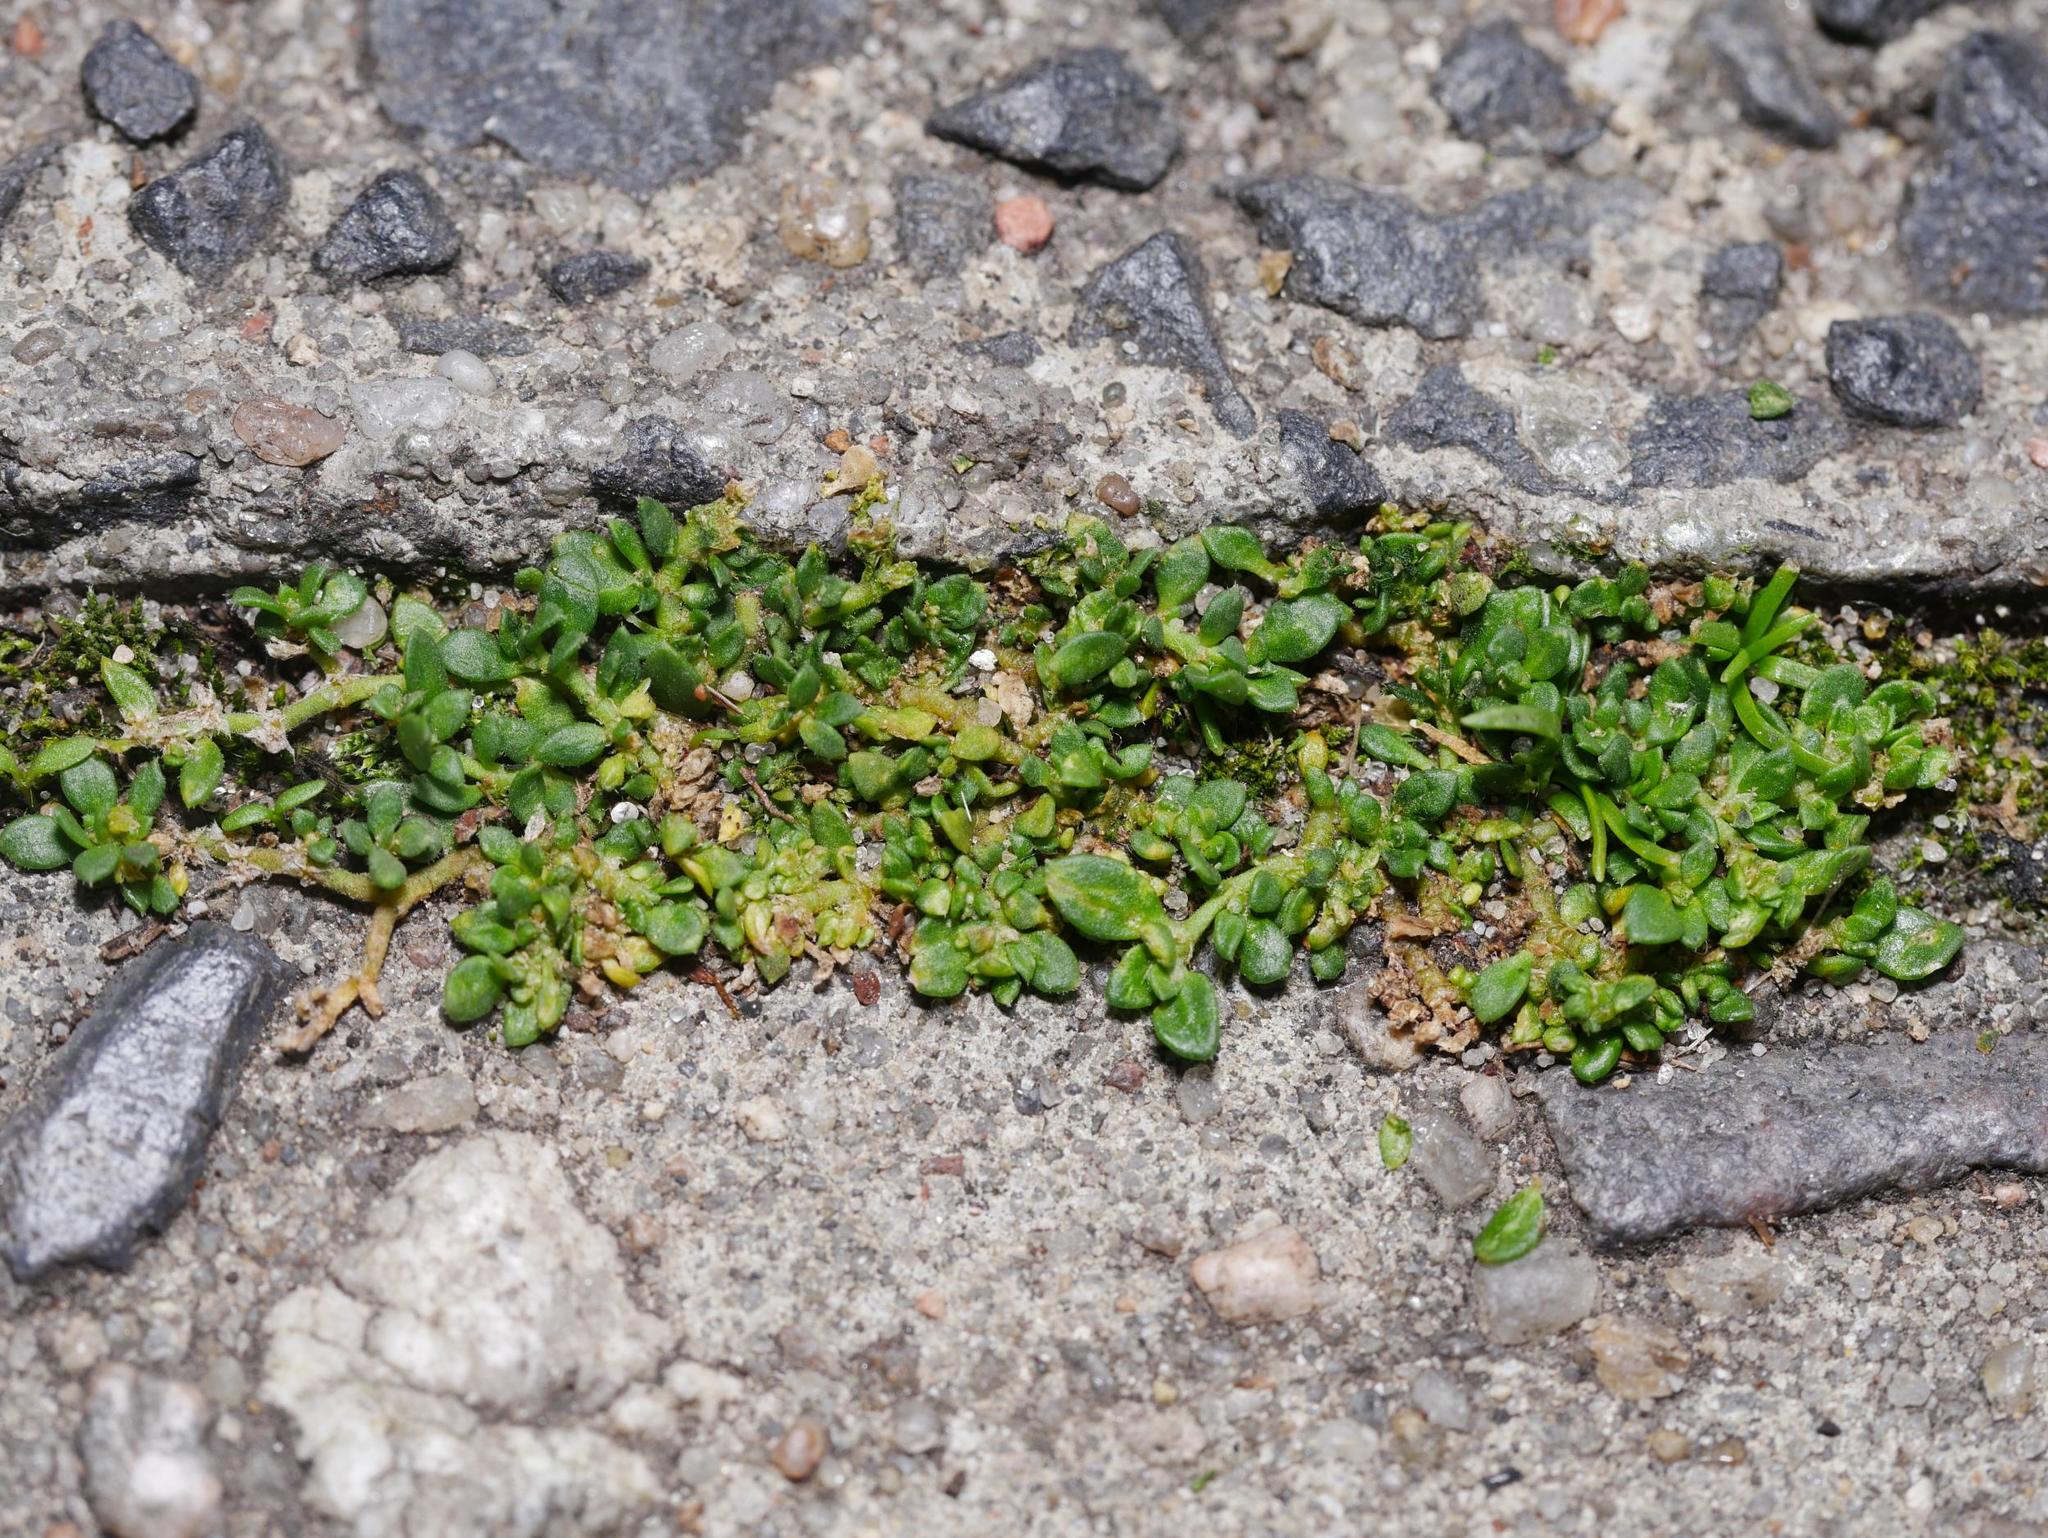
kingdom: Plantae
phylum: Tracheophyta
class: Magnoliopsida
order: Caryophyllales
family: Caryophyllaceae
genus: Herniaria
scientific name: Herniaria glabra
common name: Smooth rupturewort
